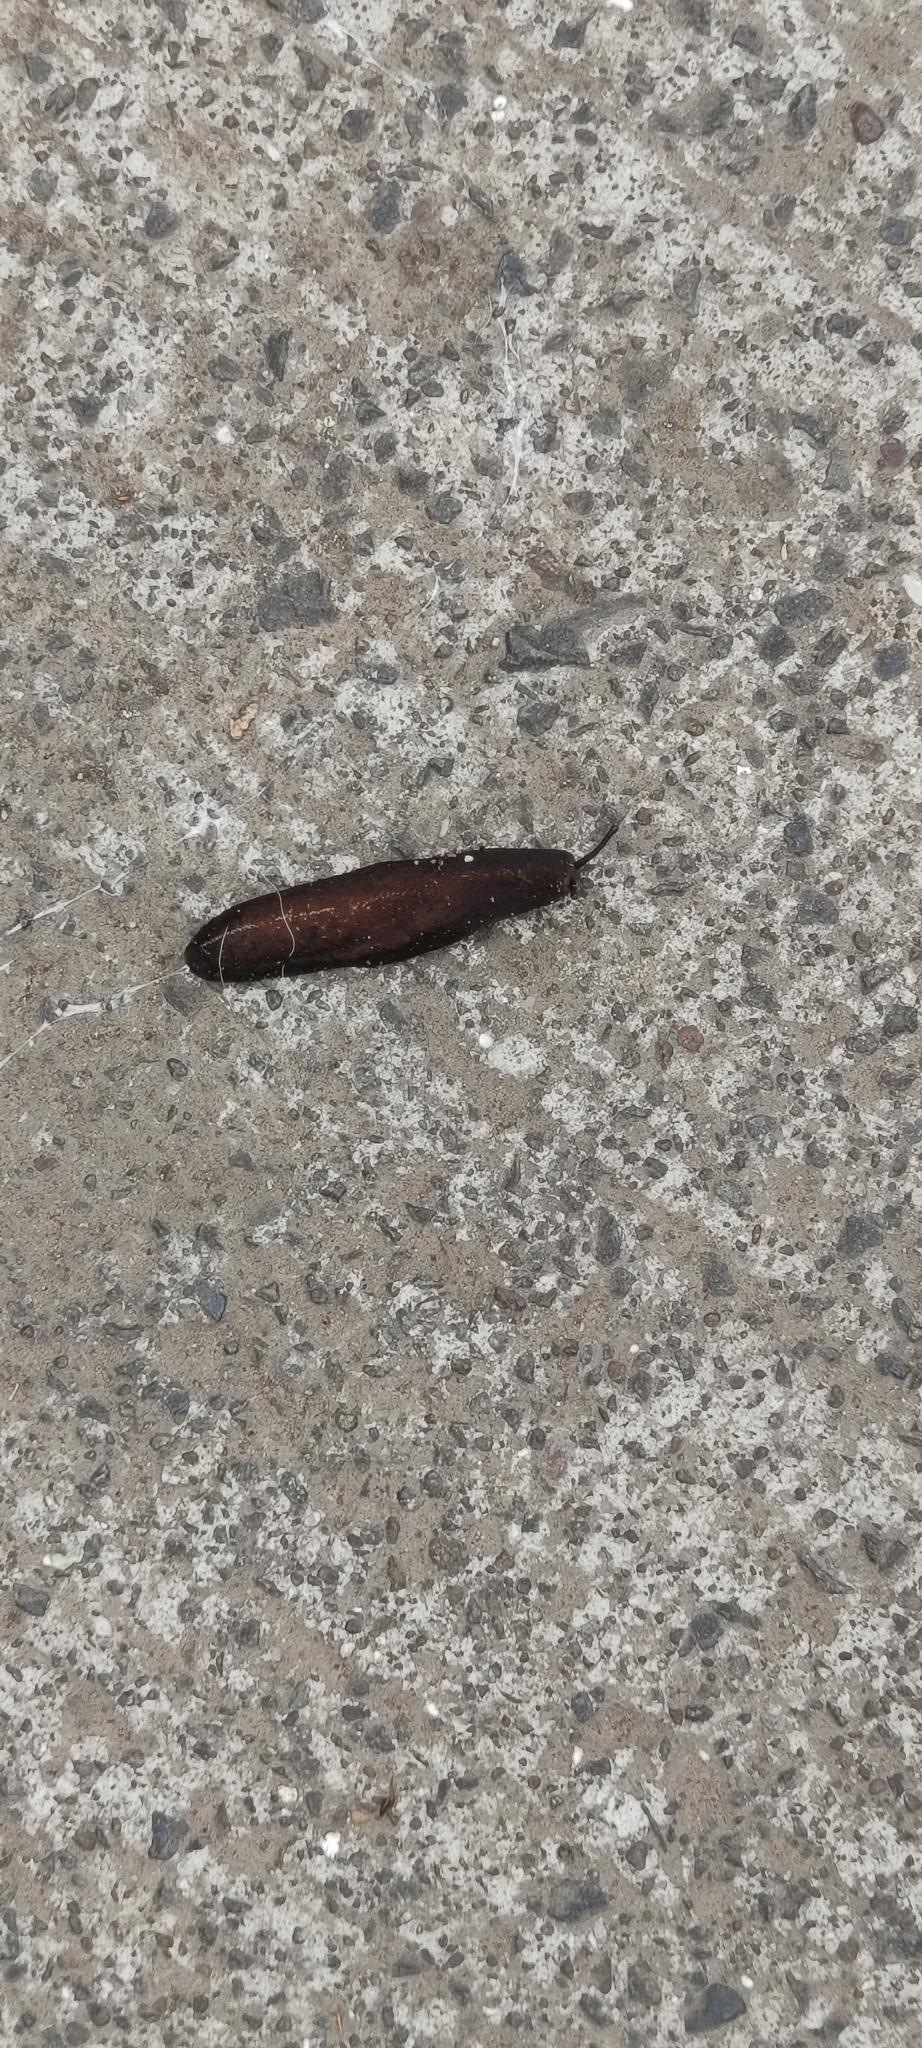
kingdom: Animalia
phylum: Mollusca
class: Gastropoda
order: Systellommatophora
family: Veronicellidae
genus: Laevicaulis
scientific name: Laevicaulis alte
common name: Tropical leatherleaf
